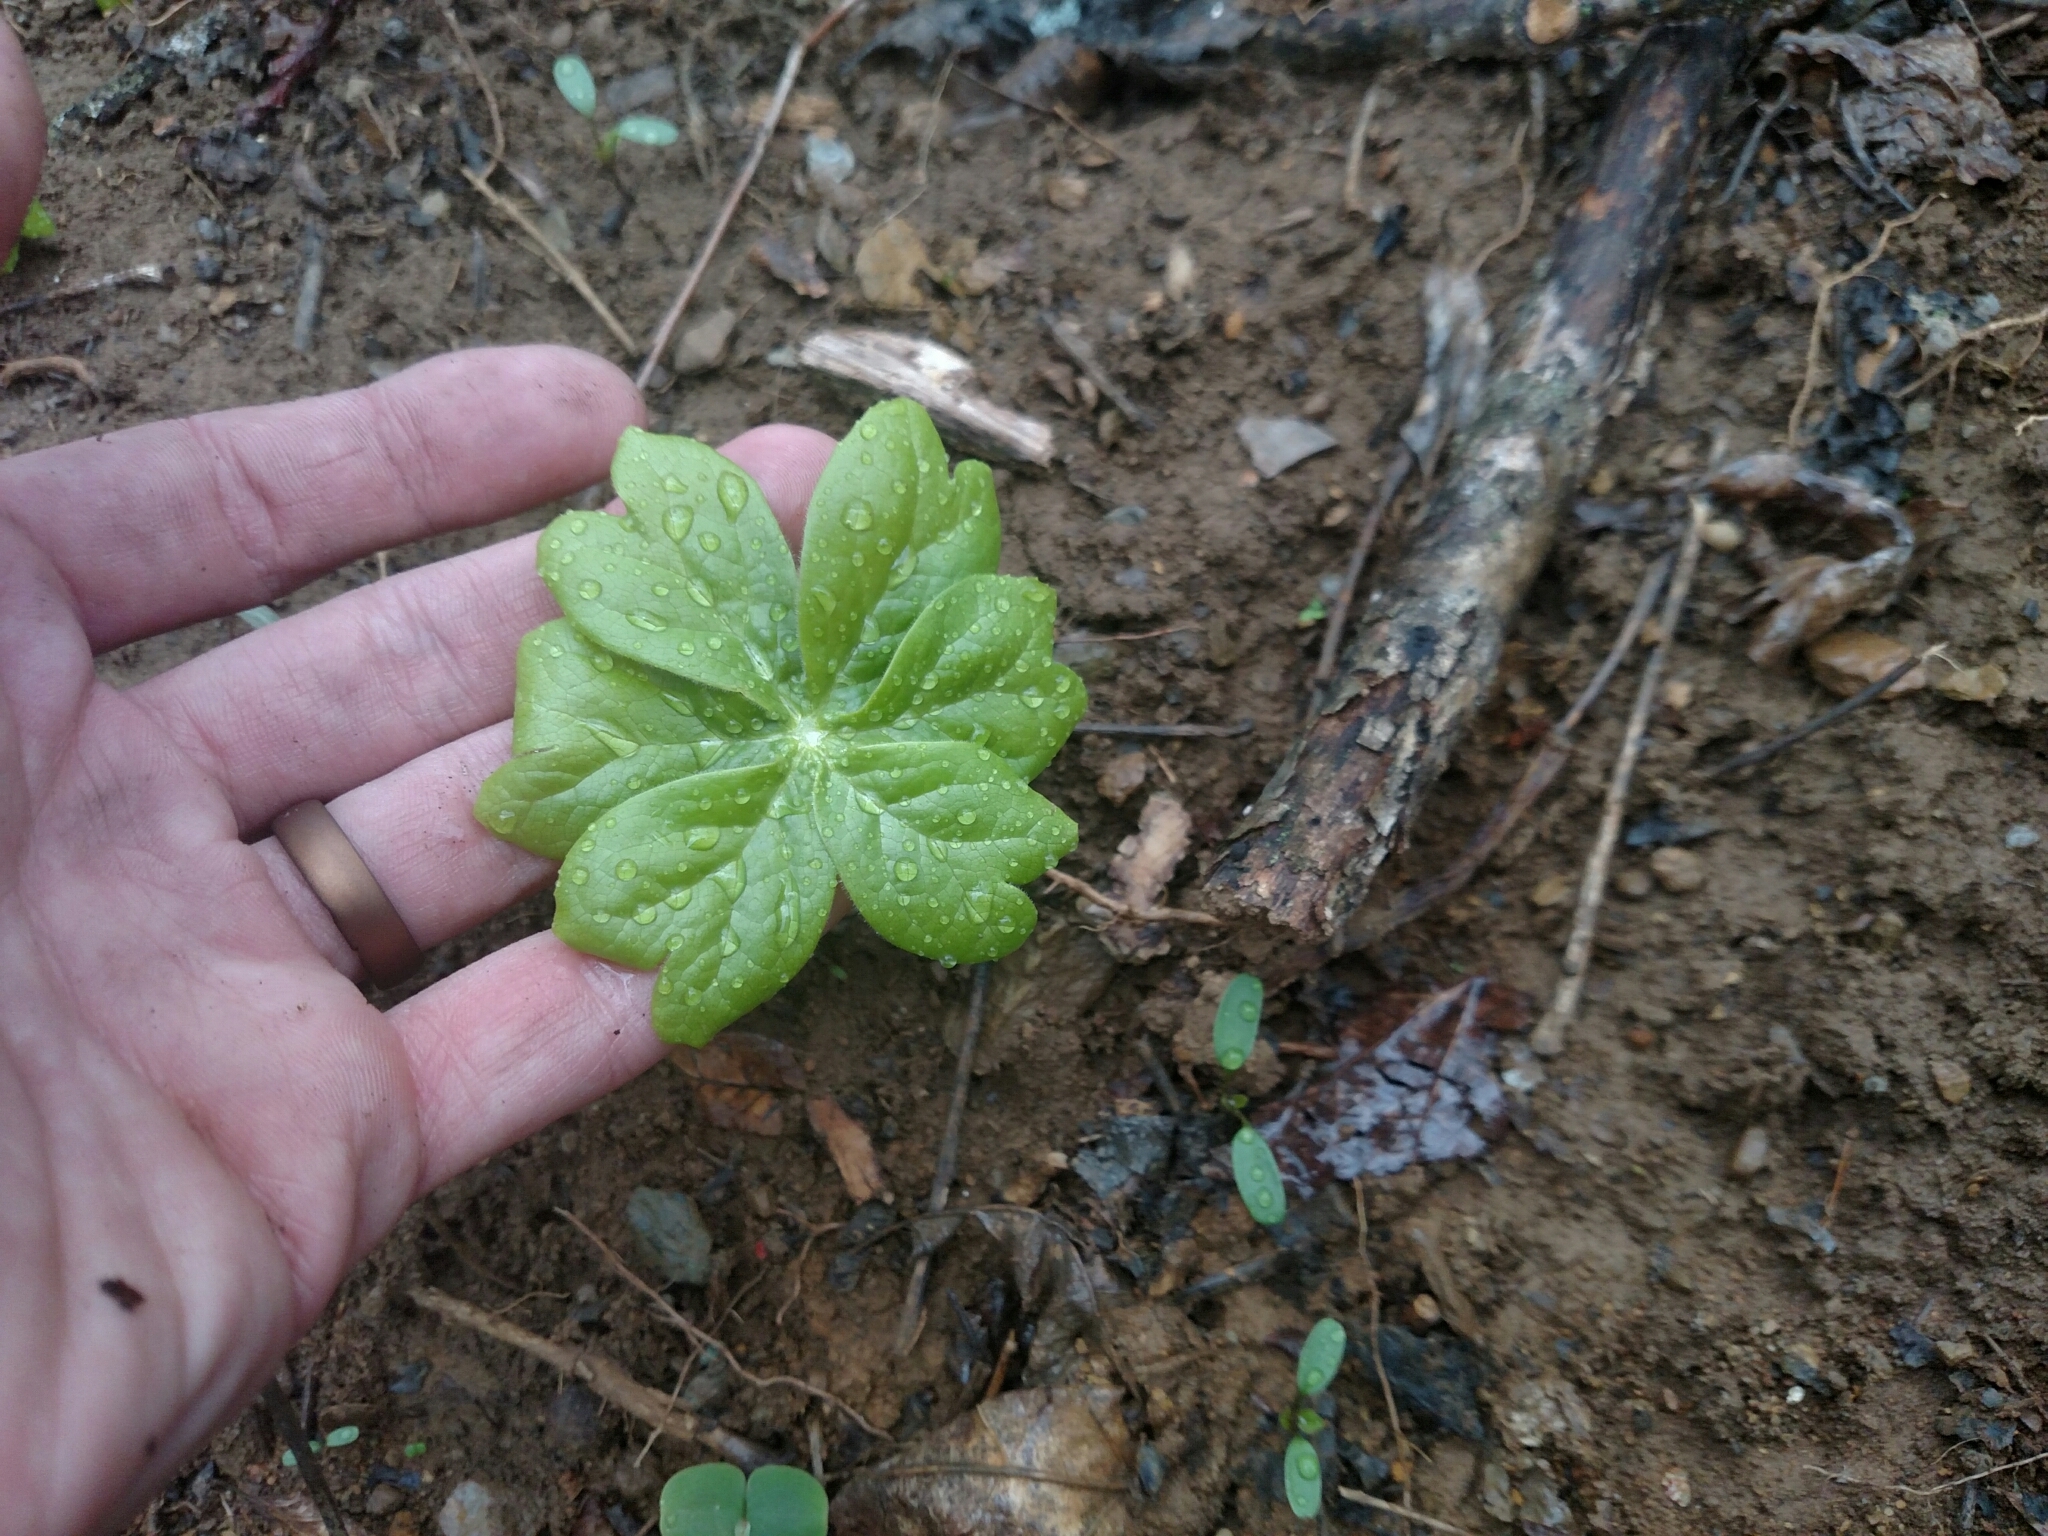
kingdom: Plantae
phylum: Tracheophyta
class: Magnoliopsida
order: Ranunculales
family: Berberidaceae
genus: Podophyllum
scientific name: Podophyllum peltatum
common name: Wild mandrake
